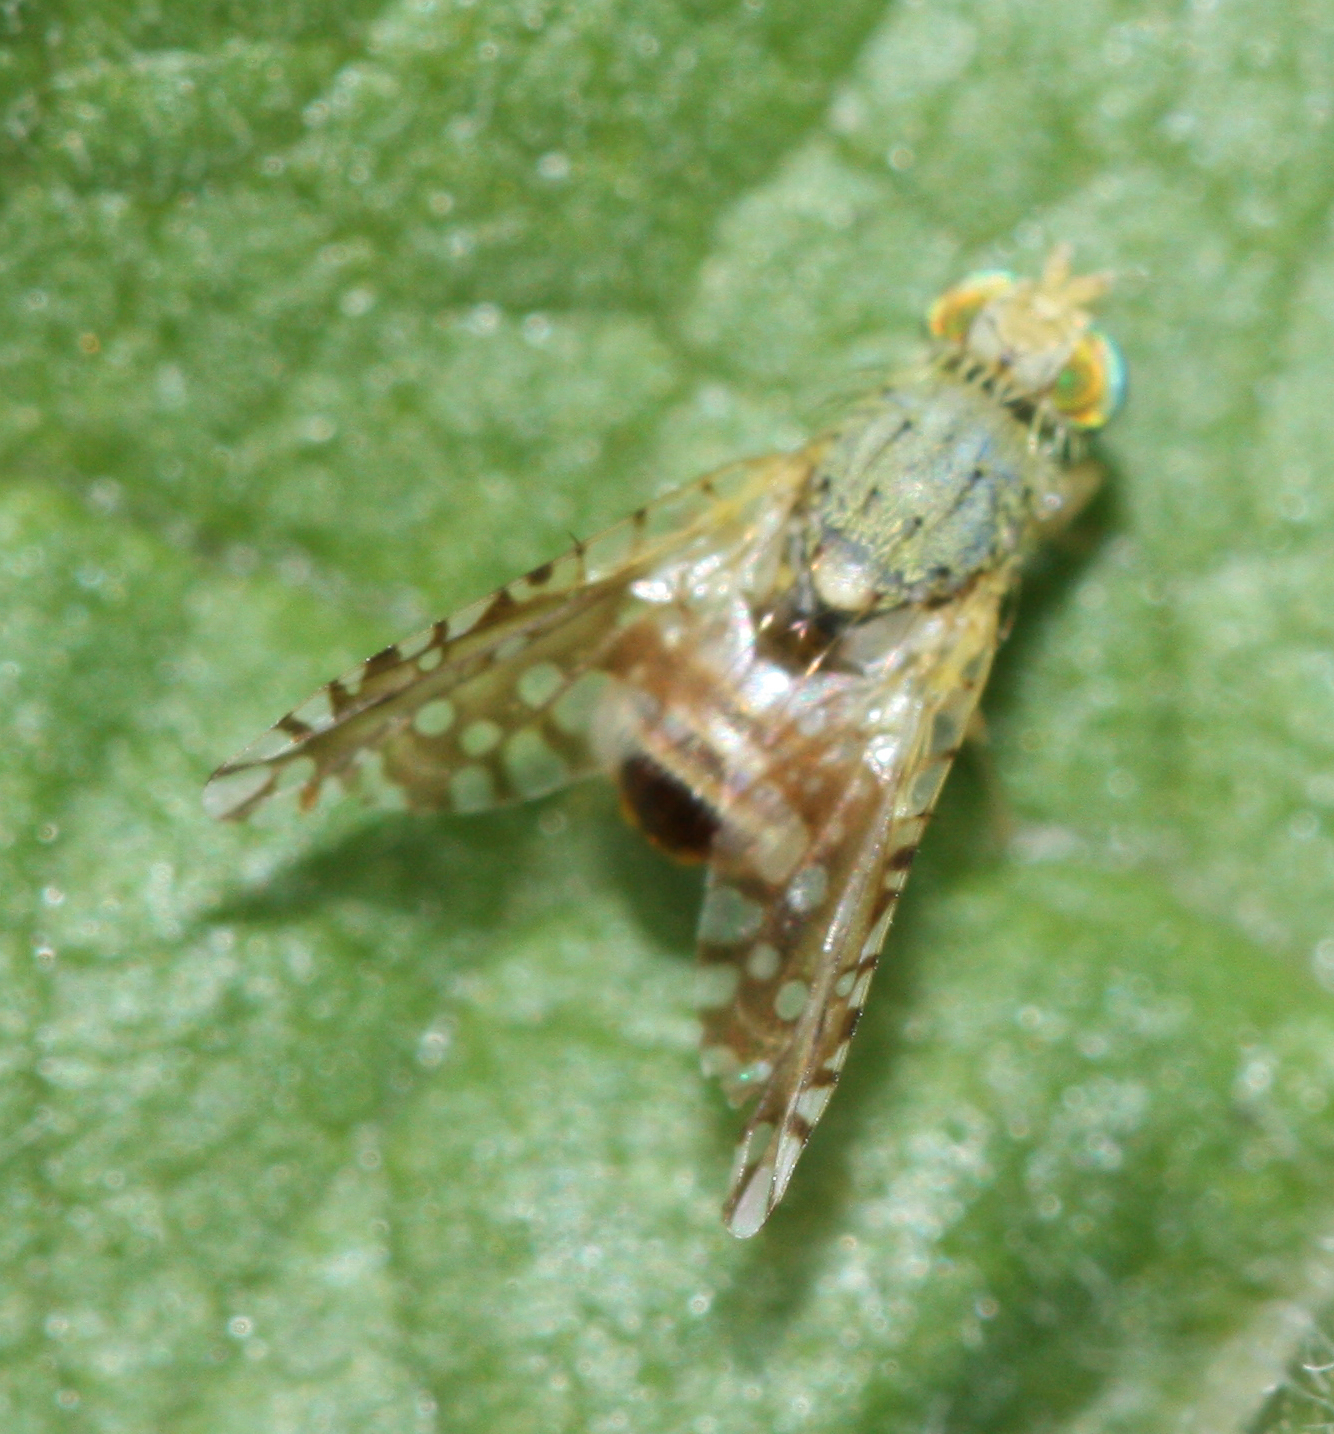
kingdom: Animalia
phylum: Arthropoda
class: Insecta
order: Diptera
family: Tephritidae
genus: Euaresta
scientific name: Euaresta stigmatica
